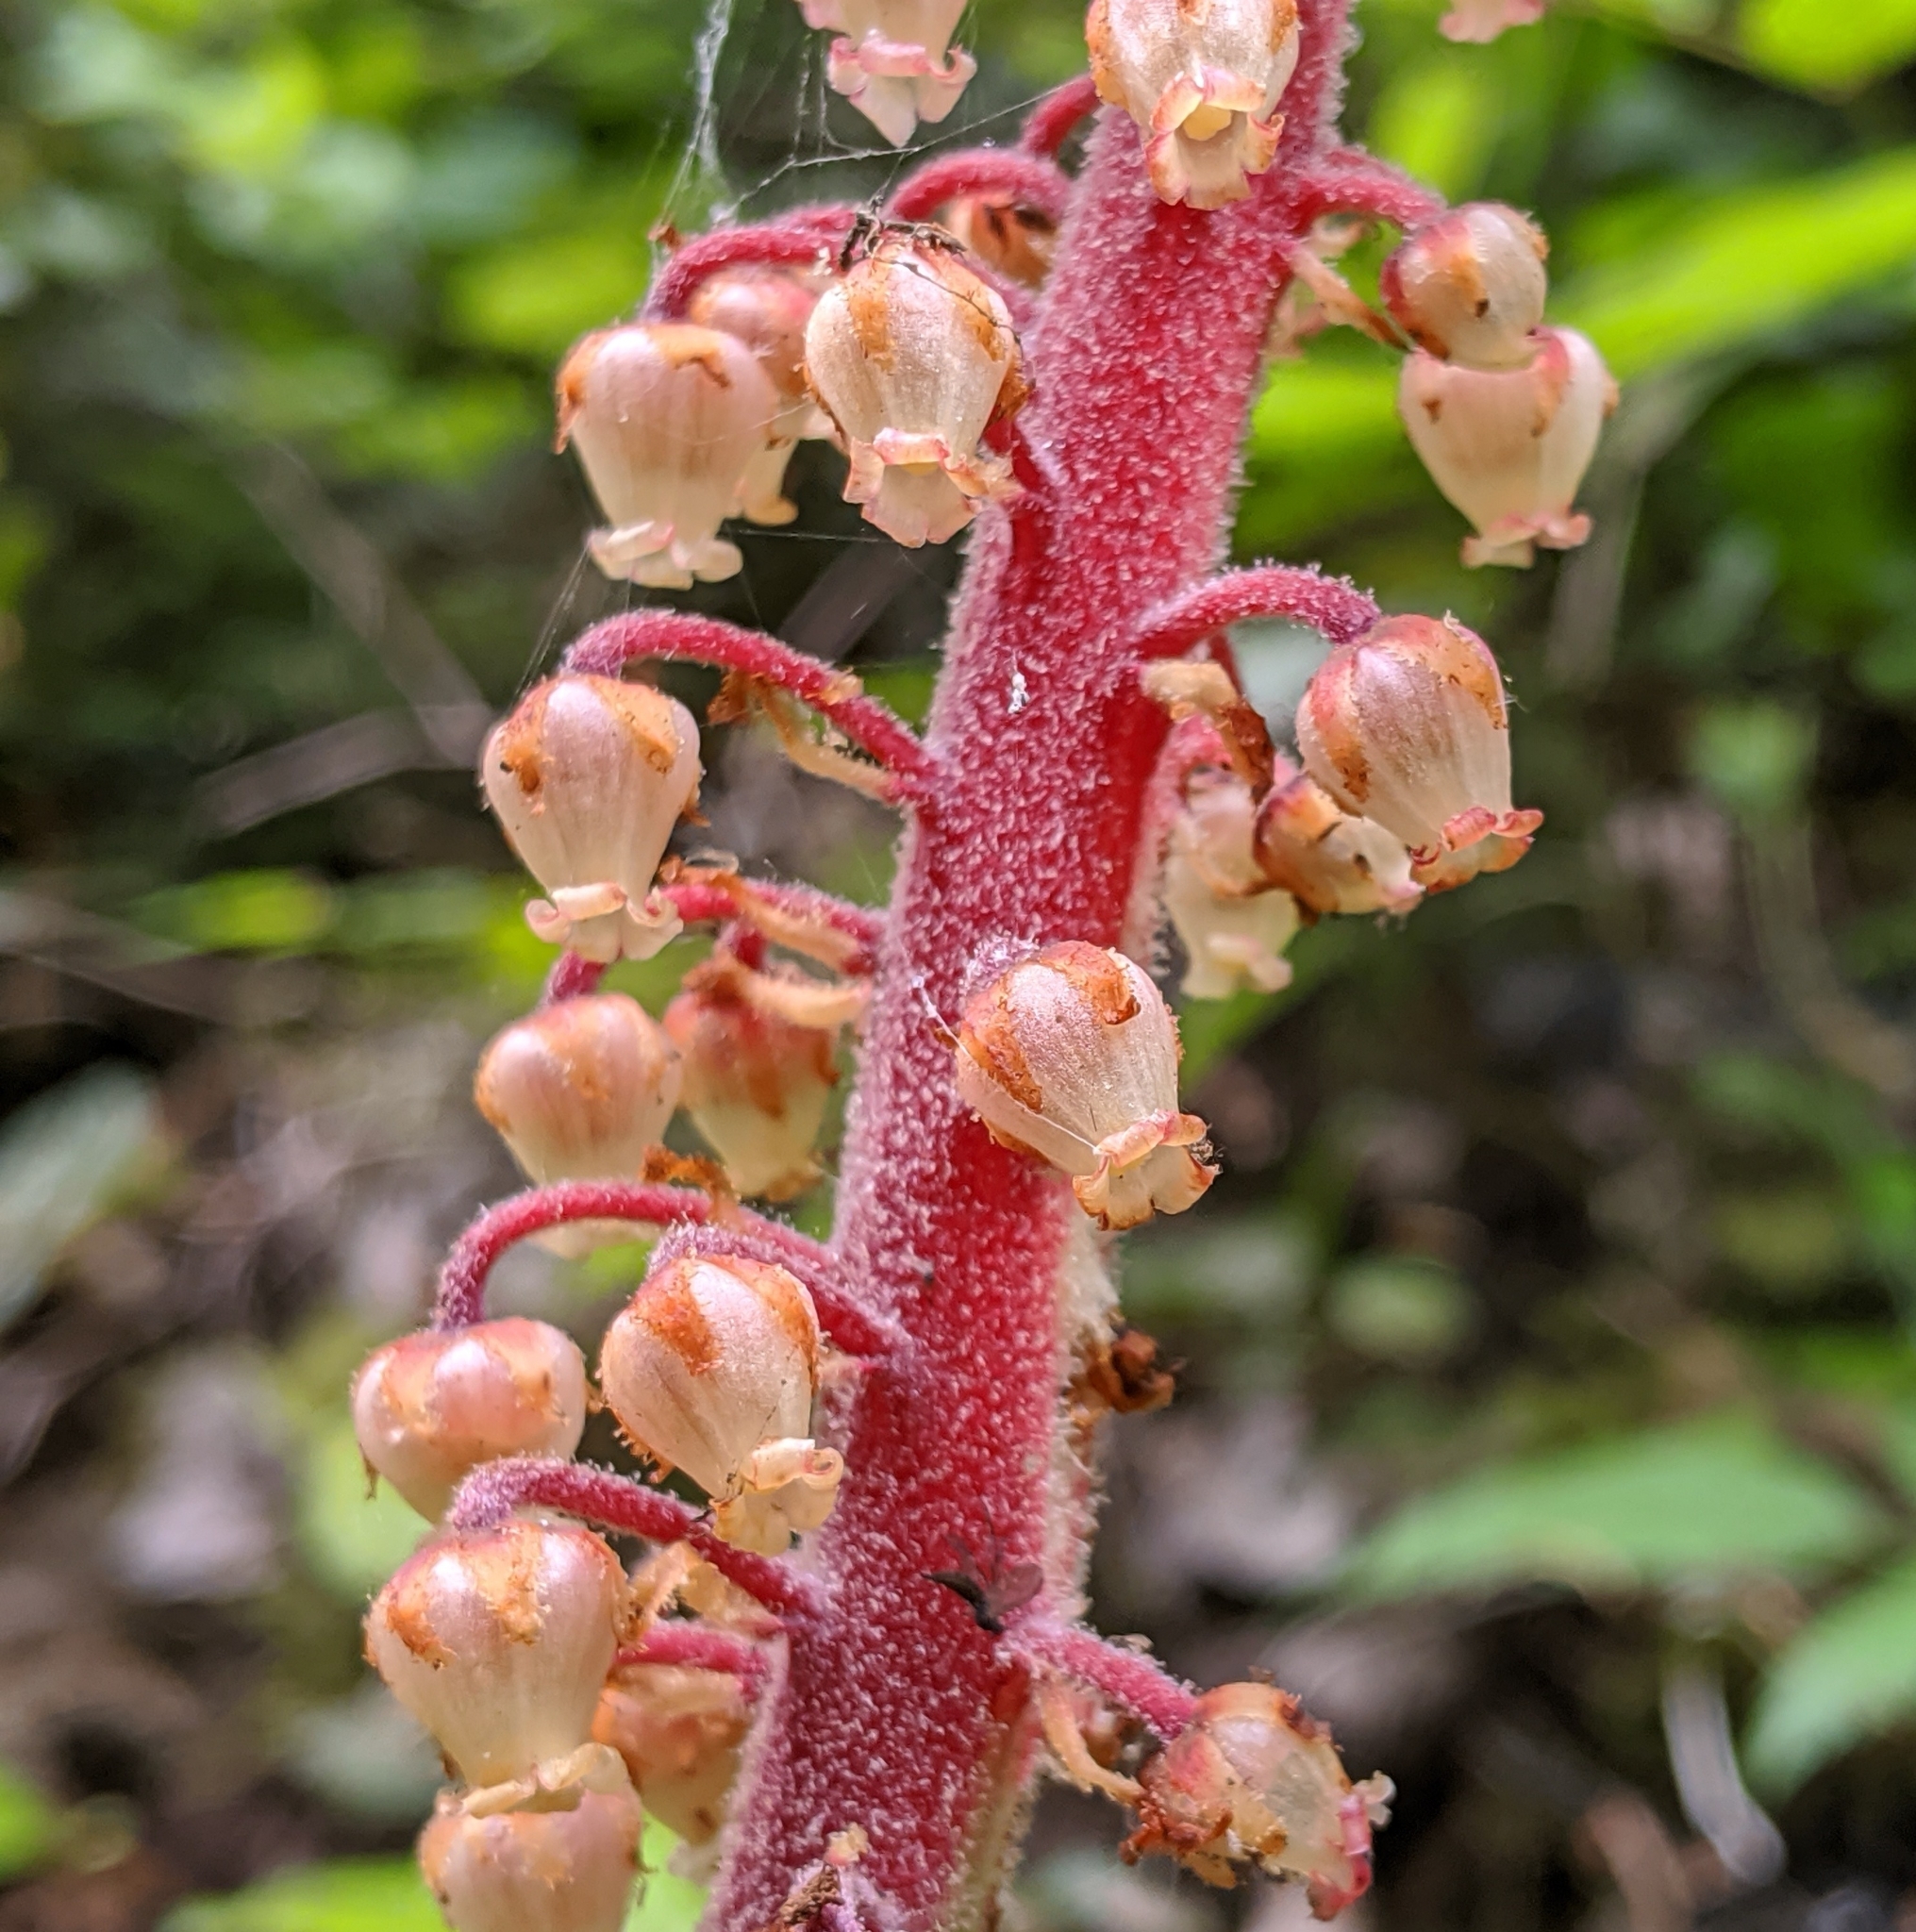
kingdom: Plantae
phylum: Tracheophyta
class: Magnoliopsida
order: Ericales
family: Ericaceae
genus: Pterospora
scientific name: Pterospora andromedea
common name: Giant bird's-nest
